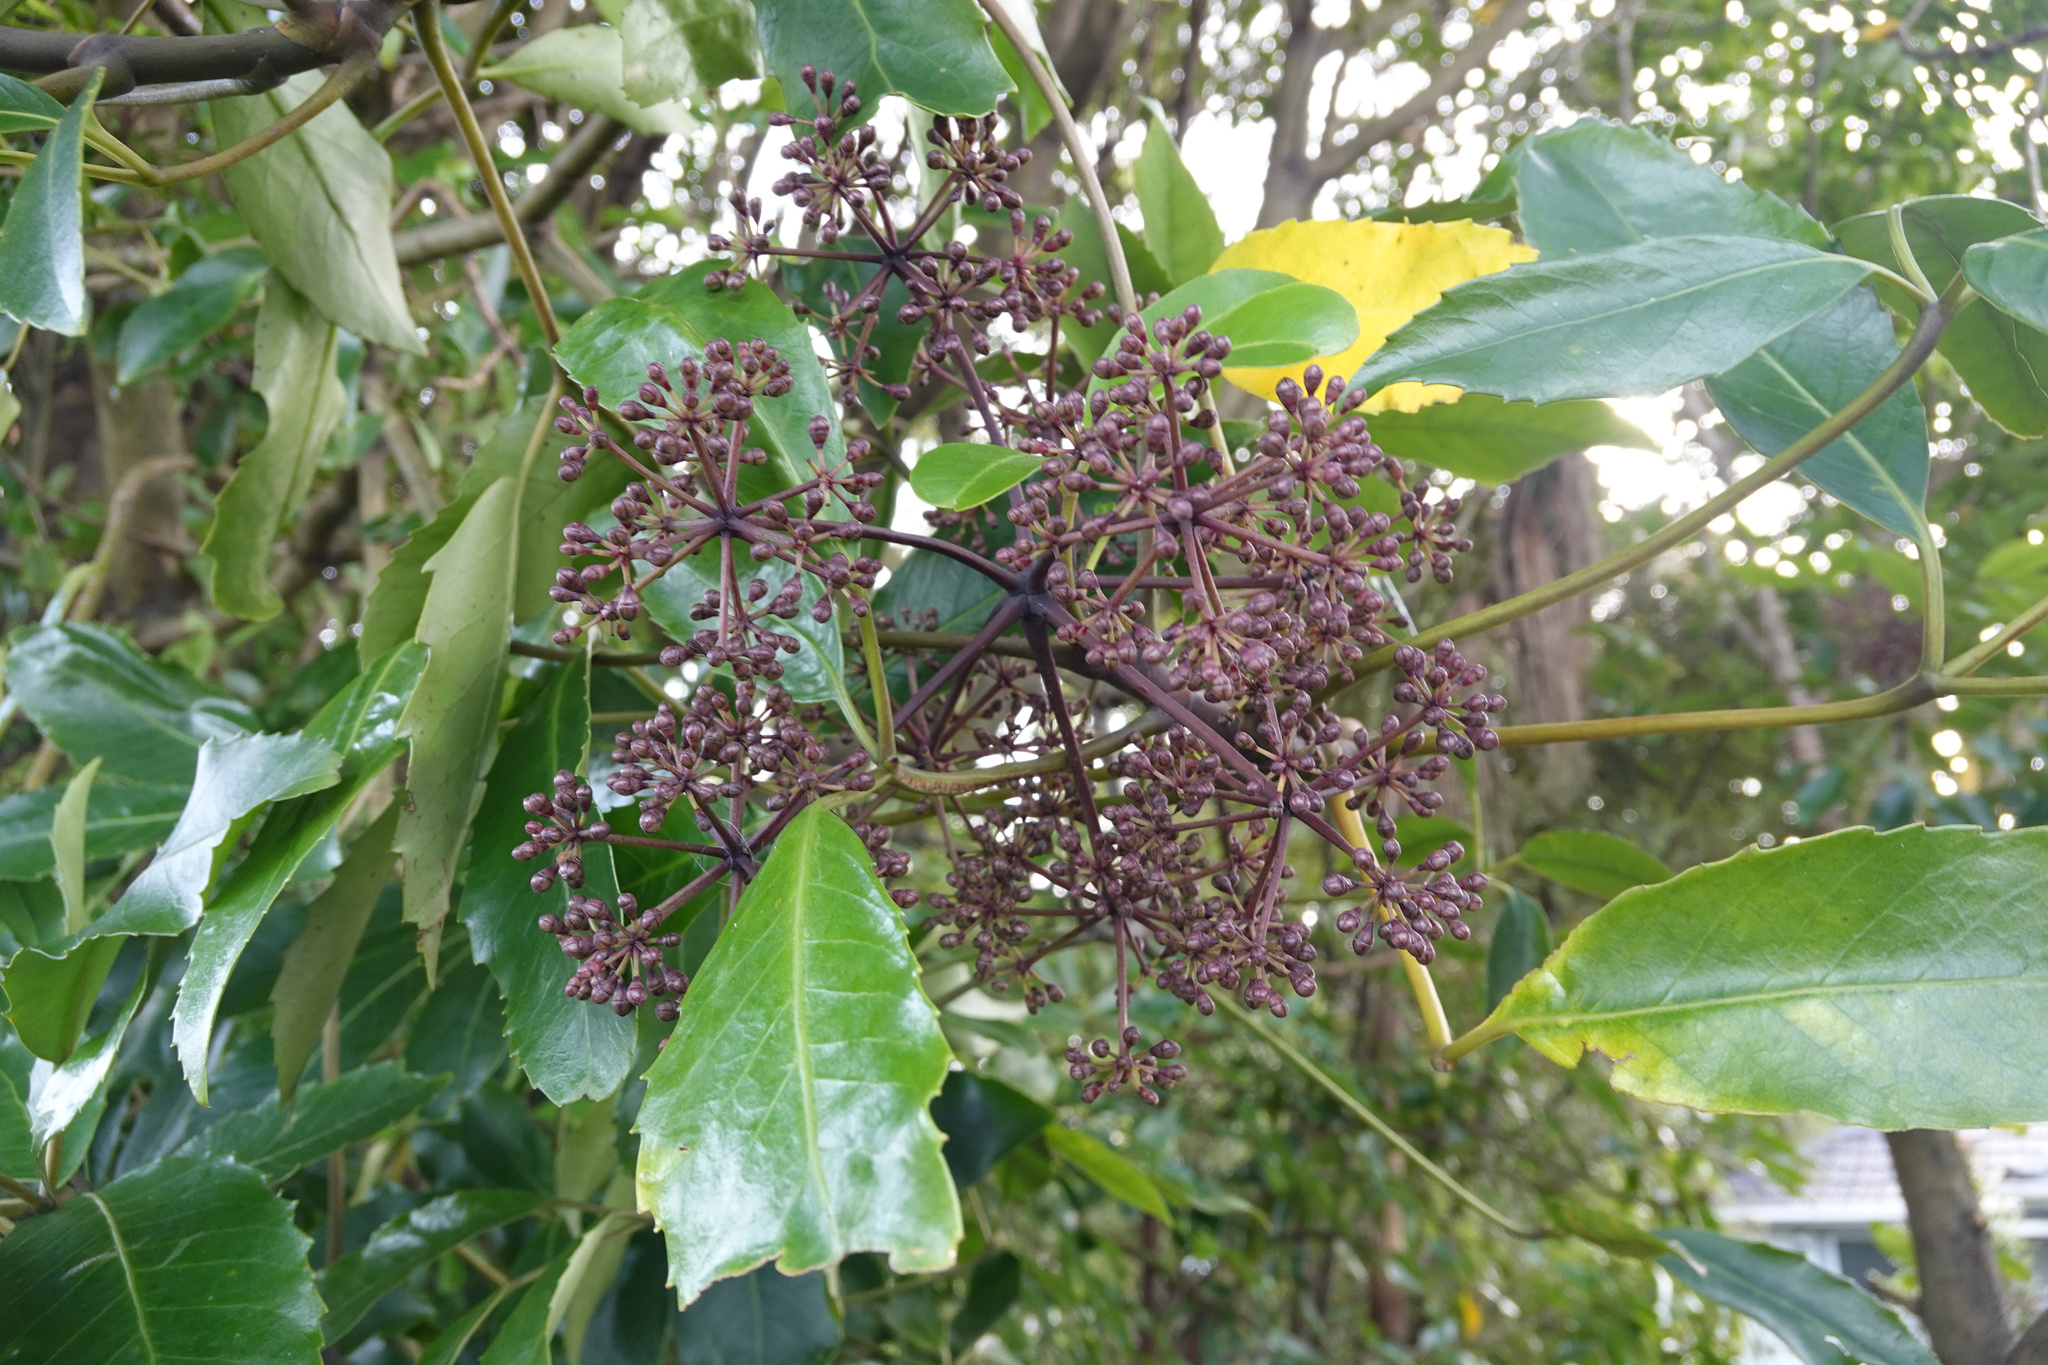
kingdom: Plantae
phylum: Tracheophyta
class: Magnoliopsida
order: Apiales
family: Araliaceae
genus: Neopanax
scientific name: Neopanax arboreus
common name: Five-fingers
